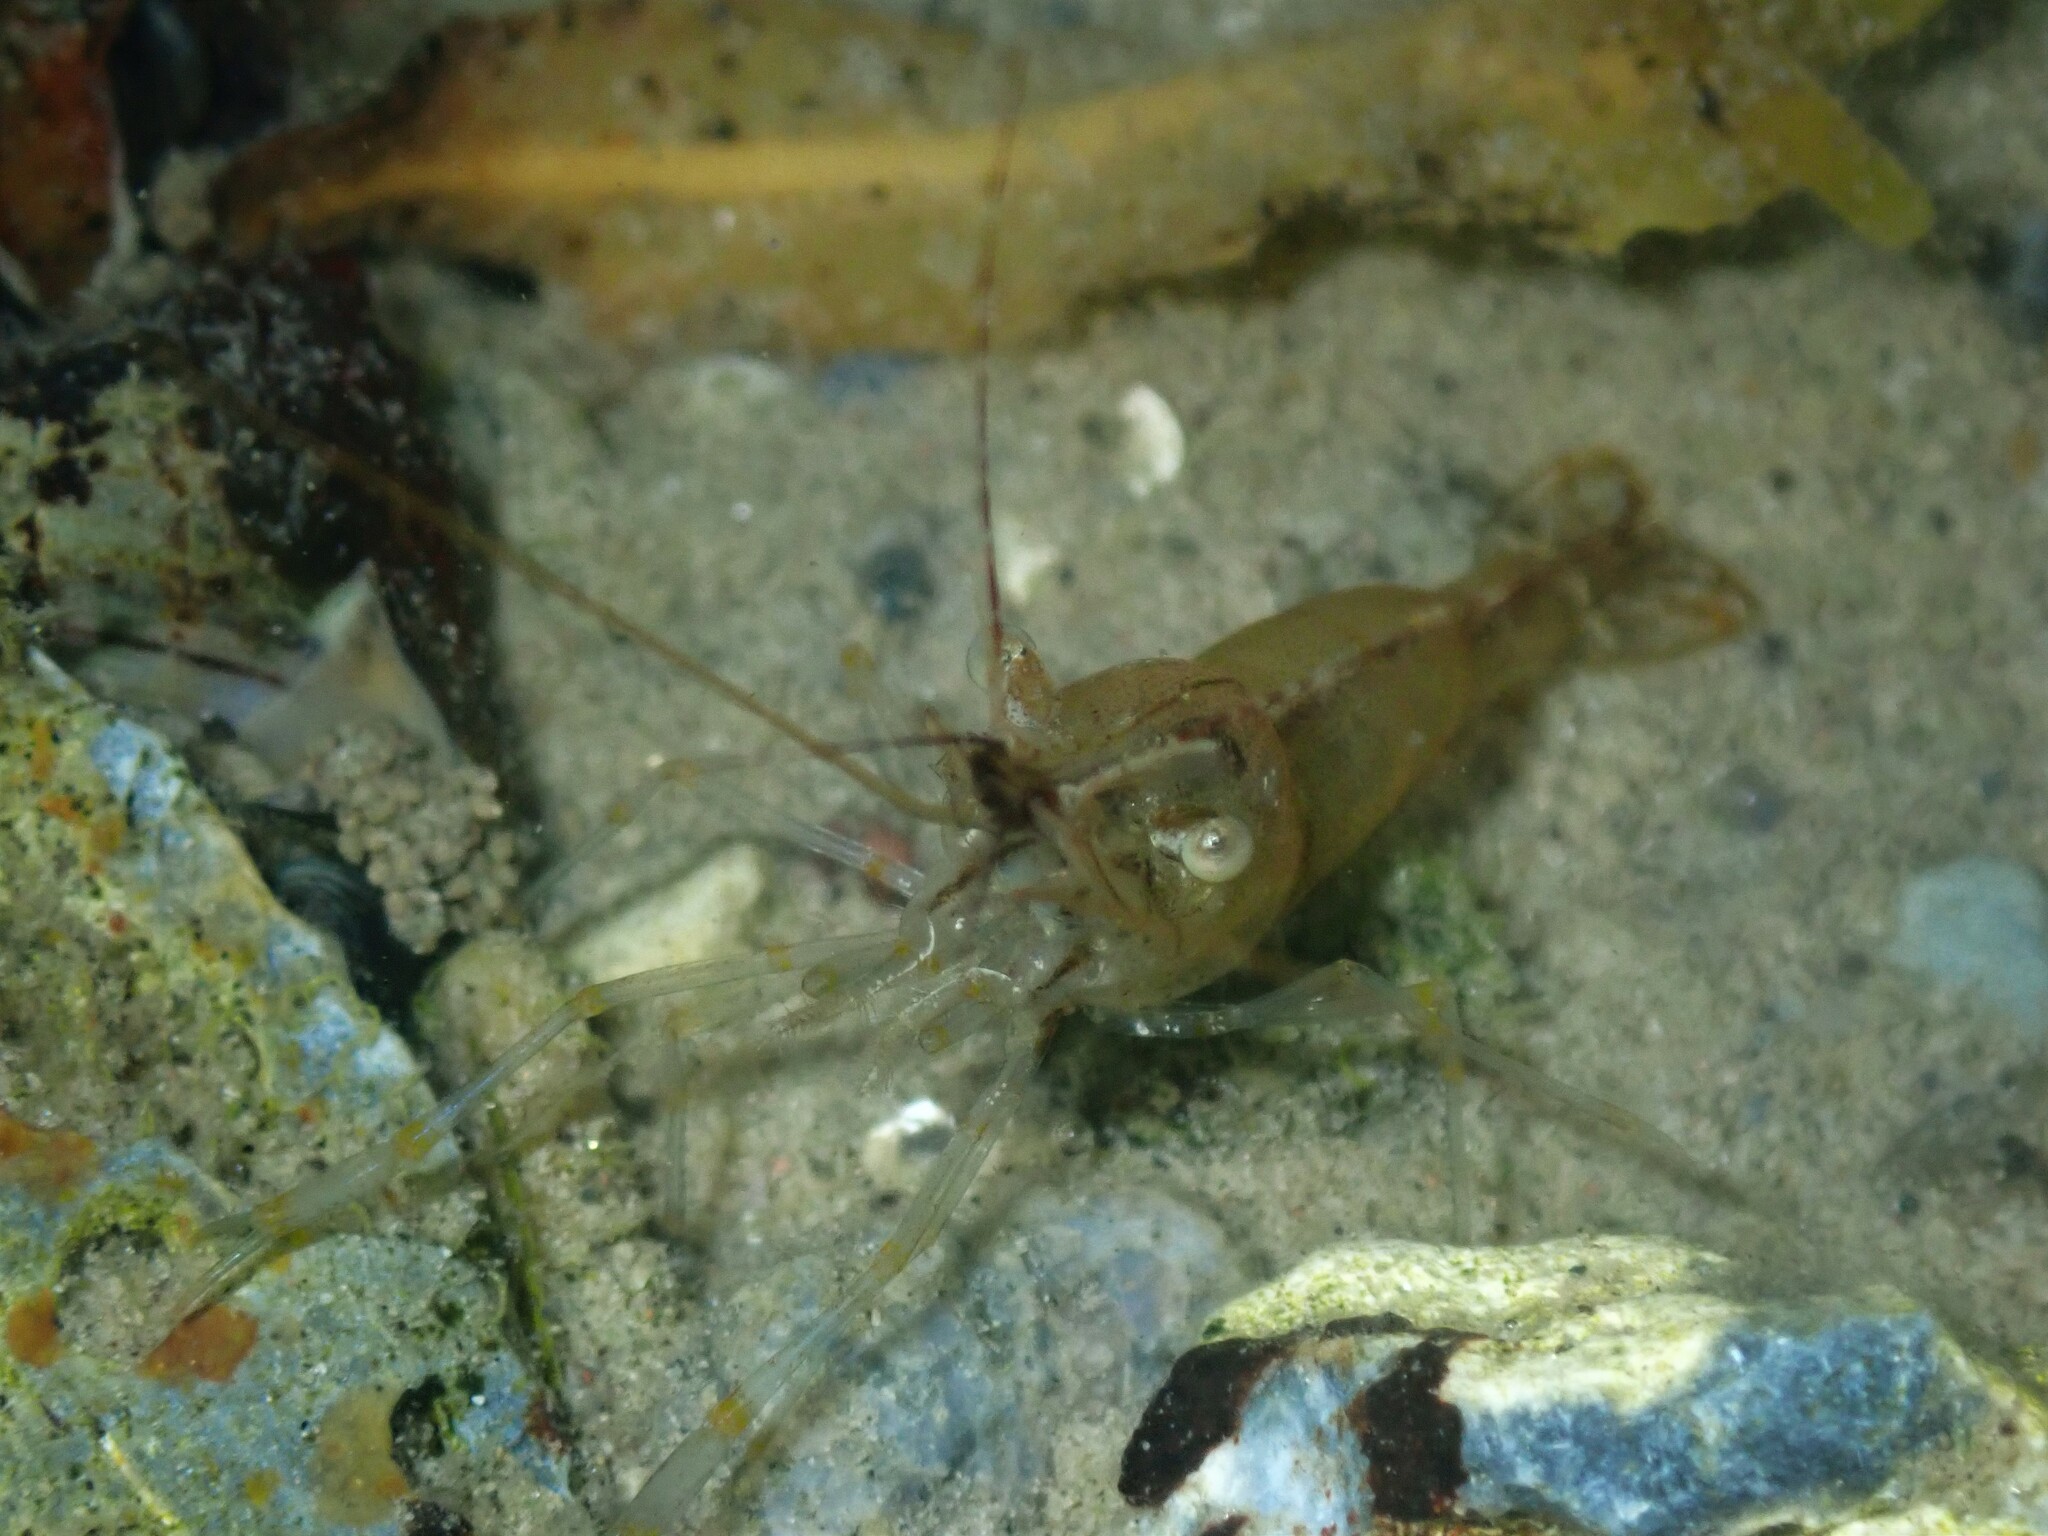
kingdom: Animalia
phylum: Arthropoda
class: Malacostraca
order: Decapoda
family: Palaemonidae
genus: Palaemon
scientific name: Palaemon adspersus
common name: Baltic prawn
